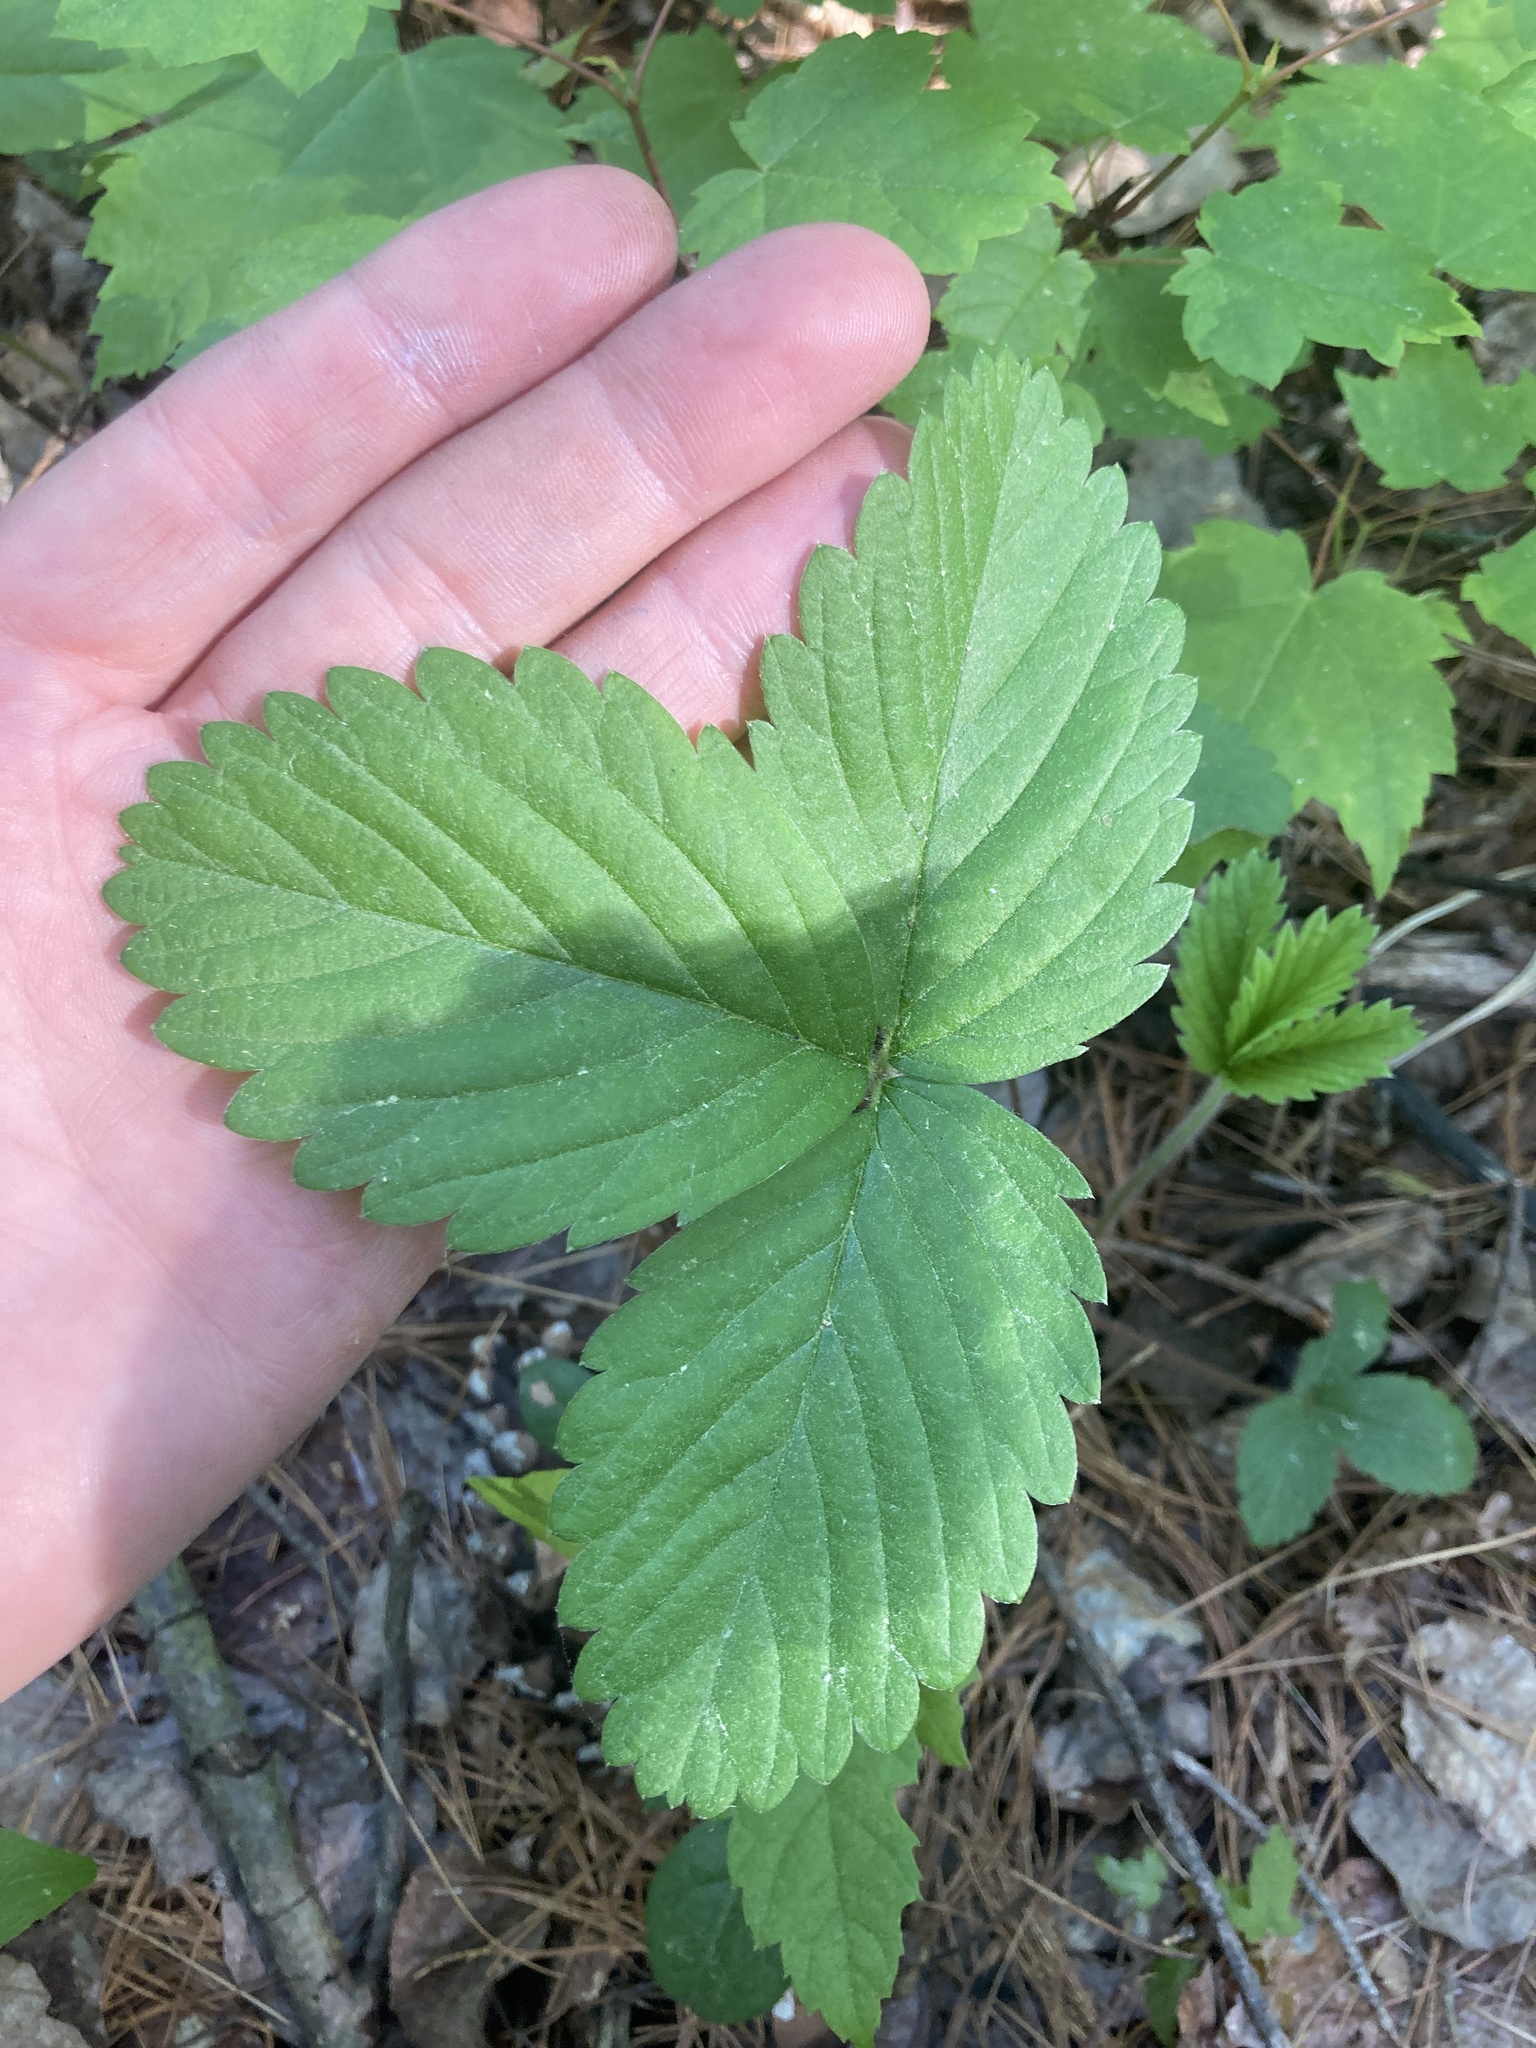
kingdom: Plantae
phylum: Tracheophyta
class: Magnoliopsida
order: Rosales
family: Rosaceae
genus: Fragaria
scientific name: Fragaria virginiana
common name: Thickleaved wild strawberry
